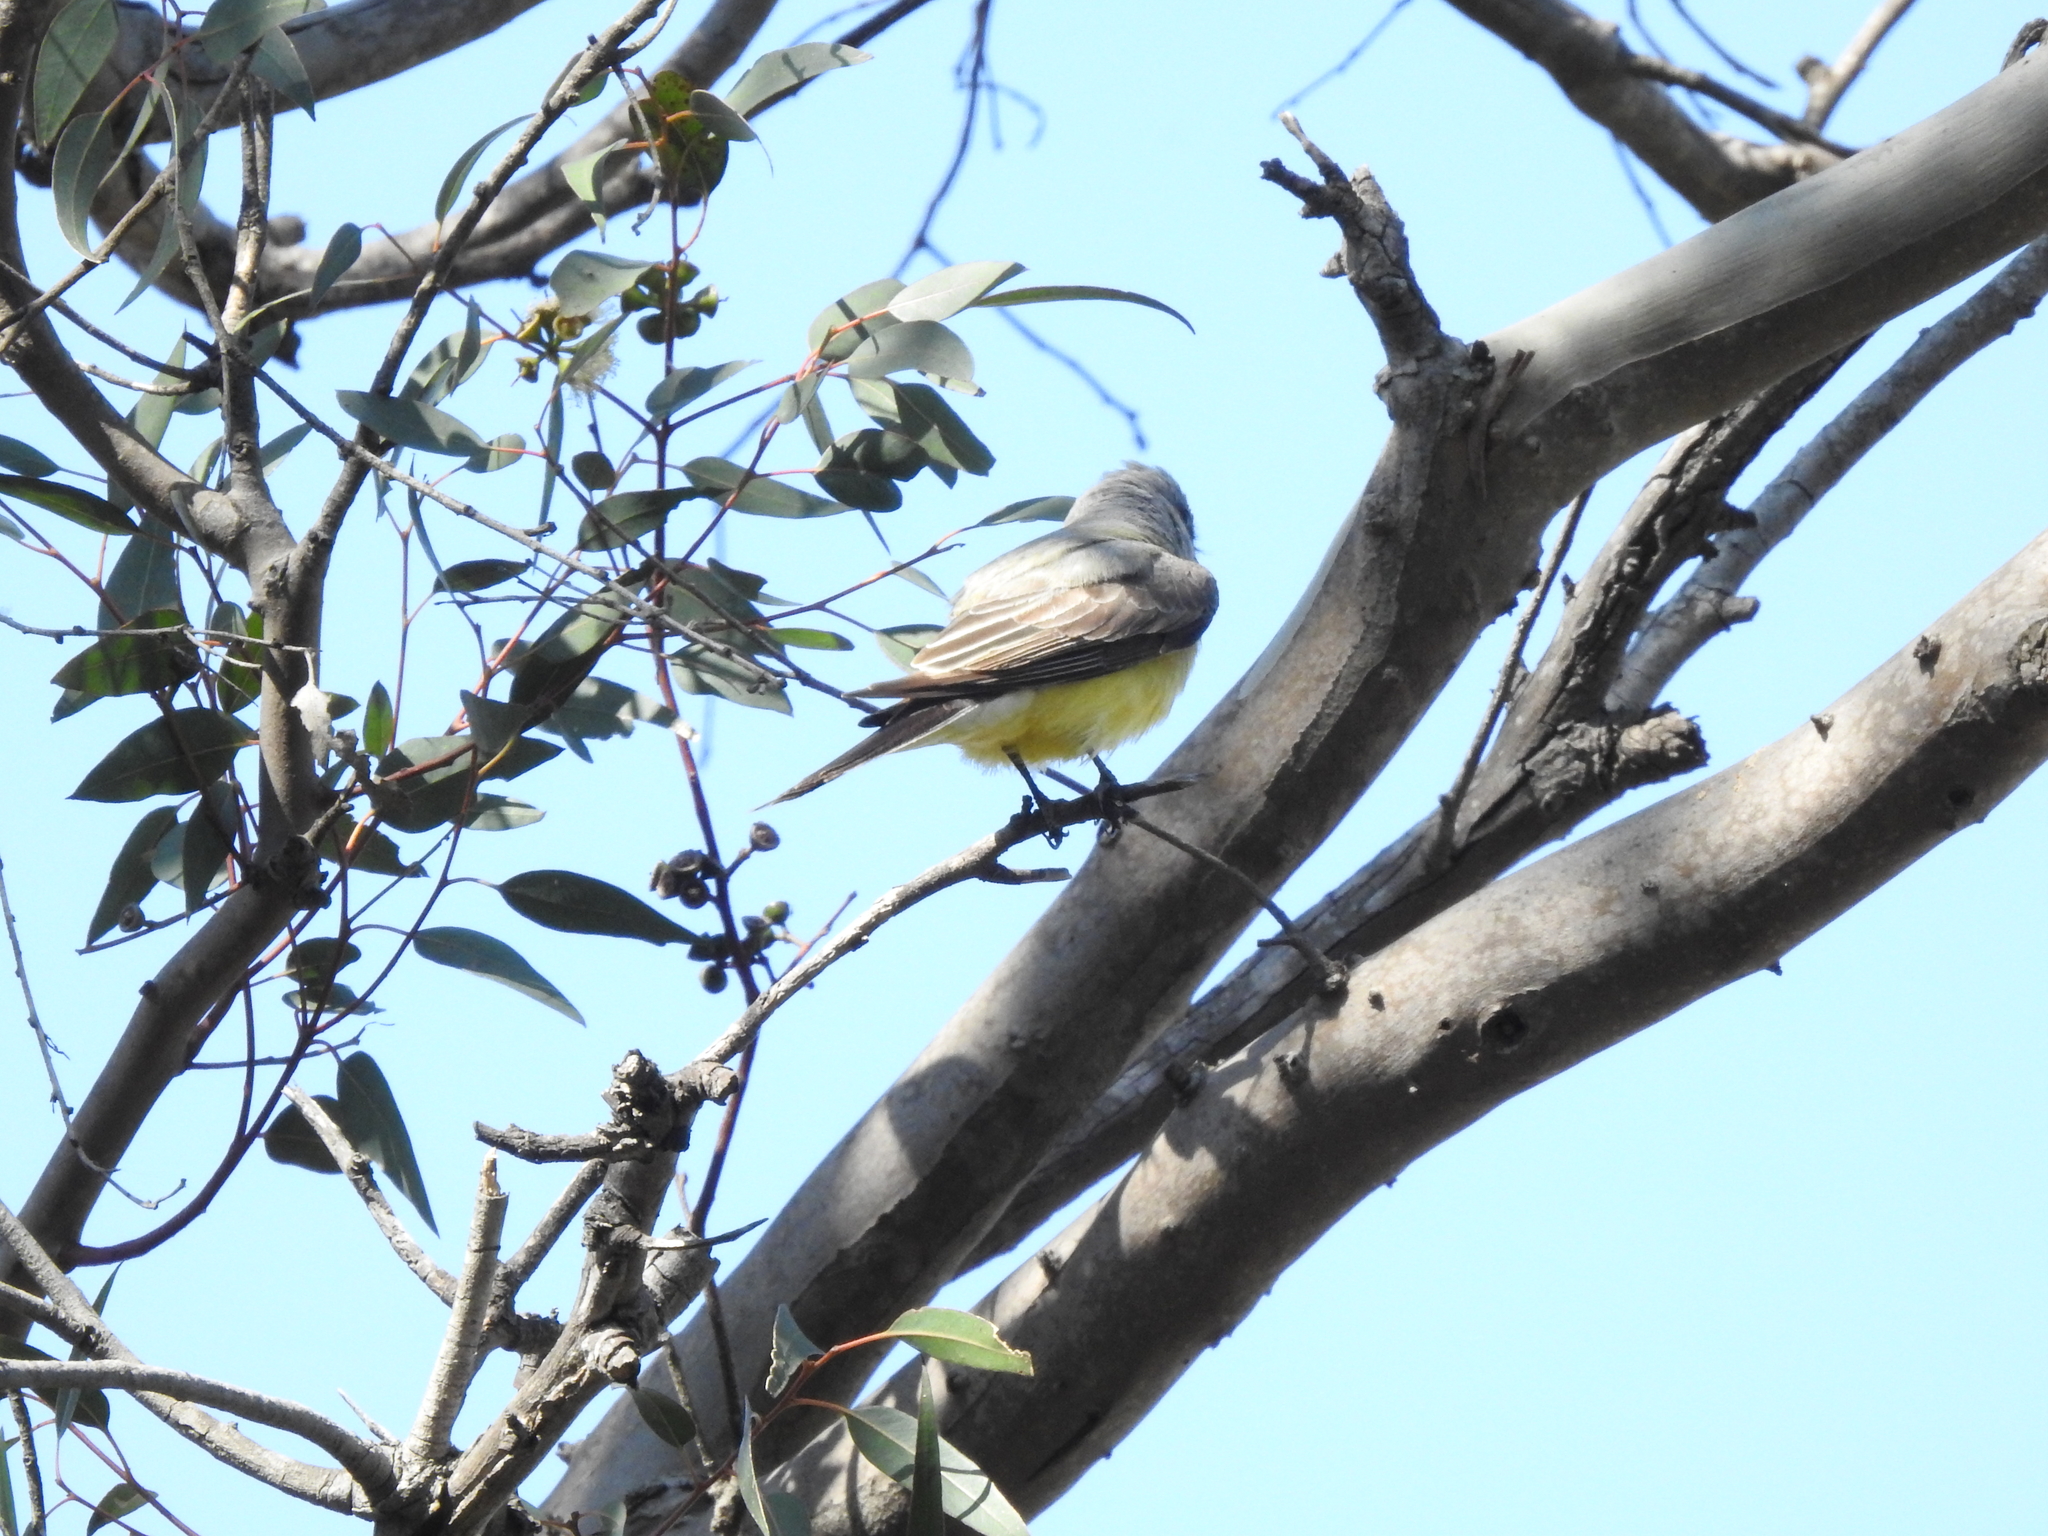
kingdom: Animalia
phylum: Chordata
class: Aves
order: Passeriformes
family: Tyrannidae
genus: Tyrannus
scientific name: Tyrannus verticalis
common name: Western kingbird
